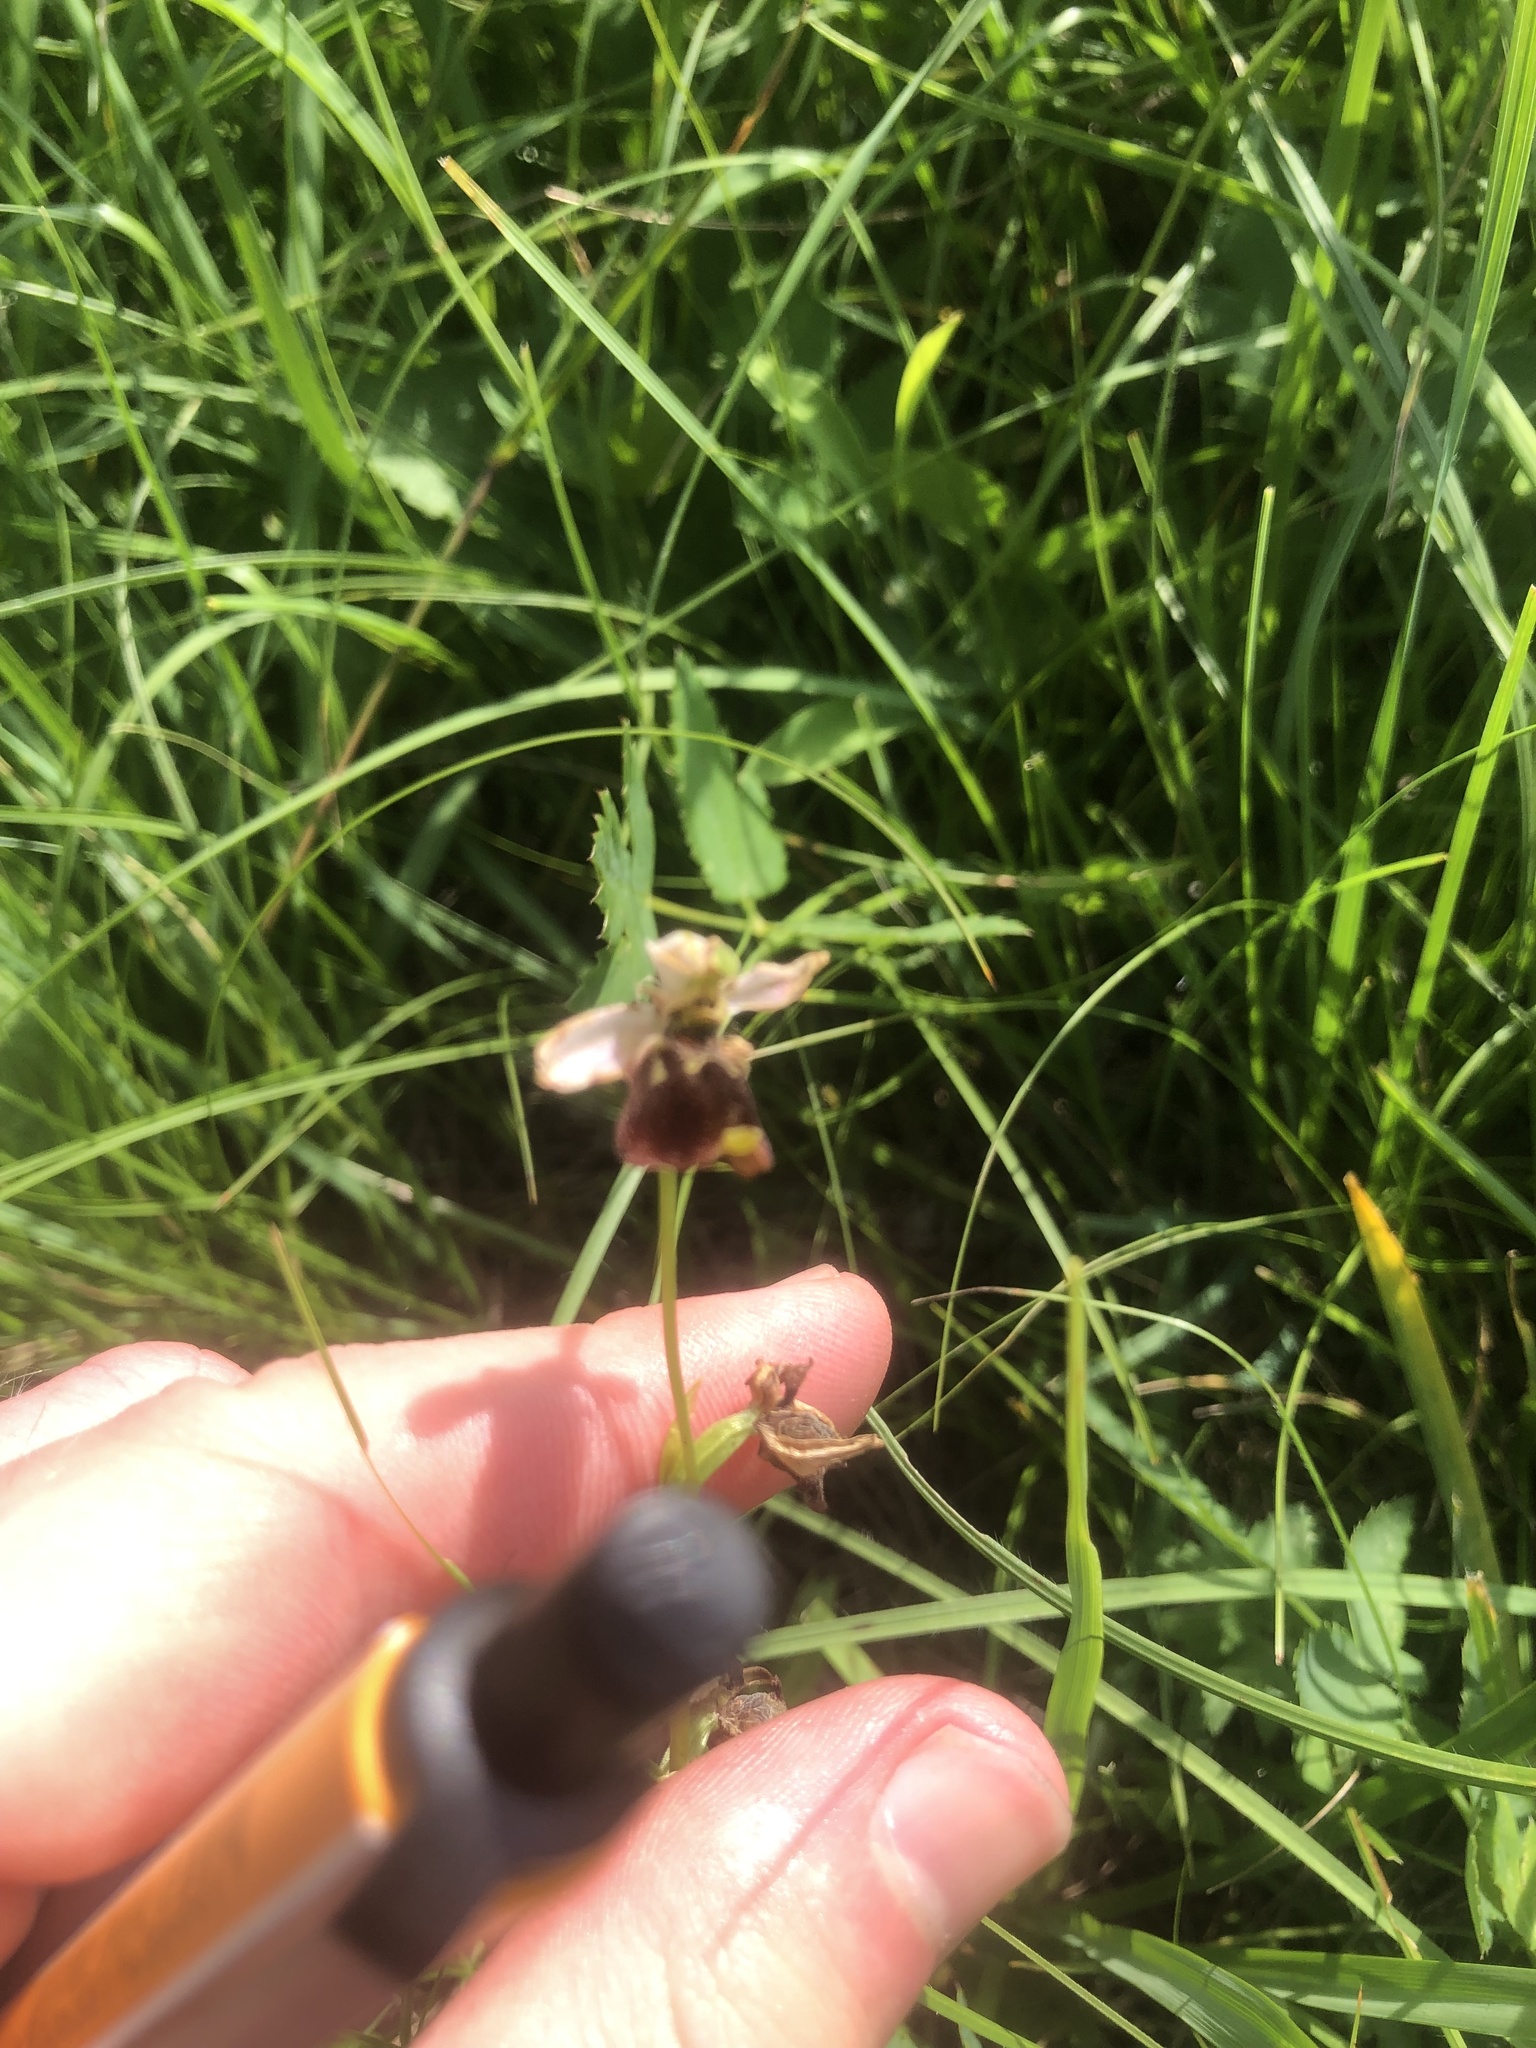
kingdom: Plantae
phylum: Tracheophyta
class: Liliopsida
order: Asparagales
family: Orchidaceae
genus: Ophrys
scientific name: Ophrys holosericea
